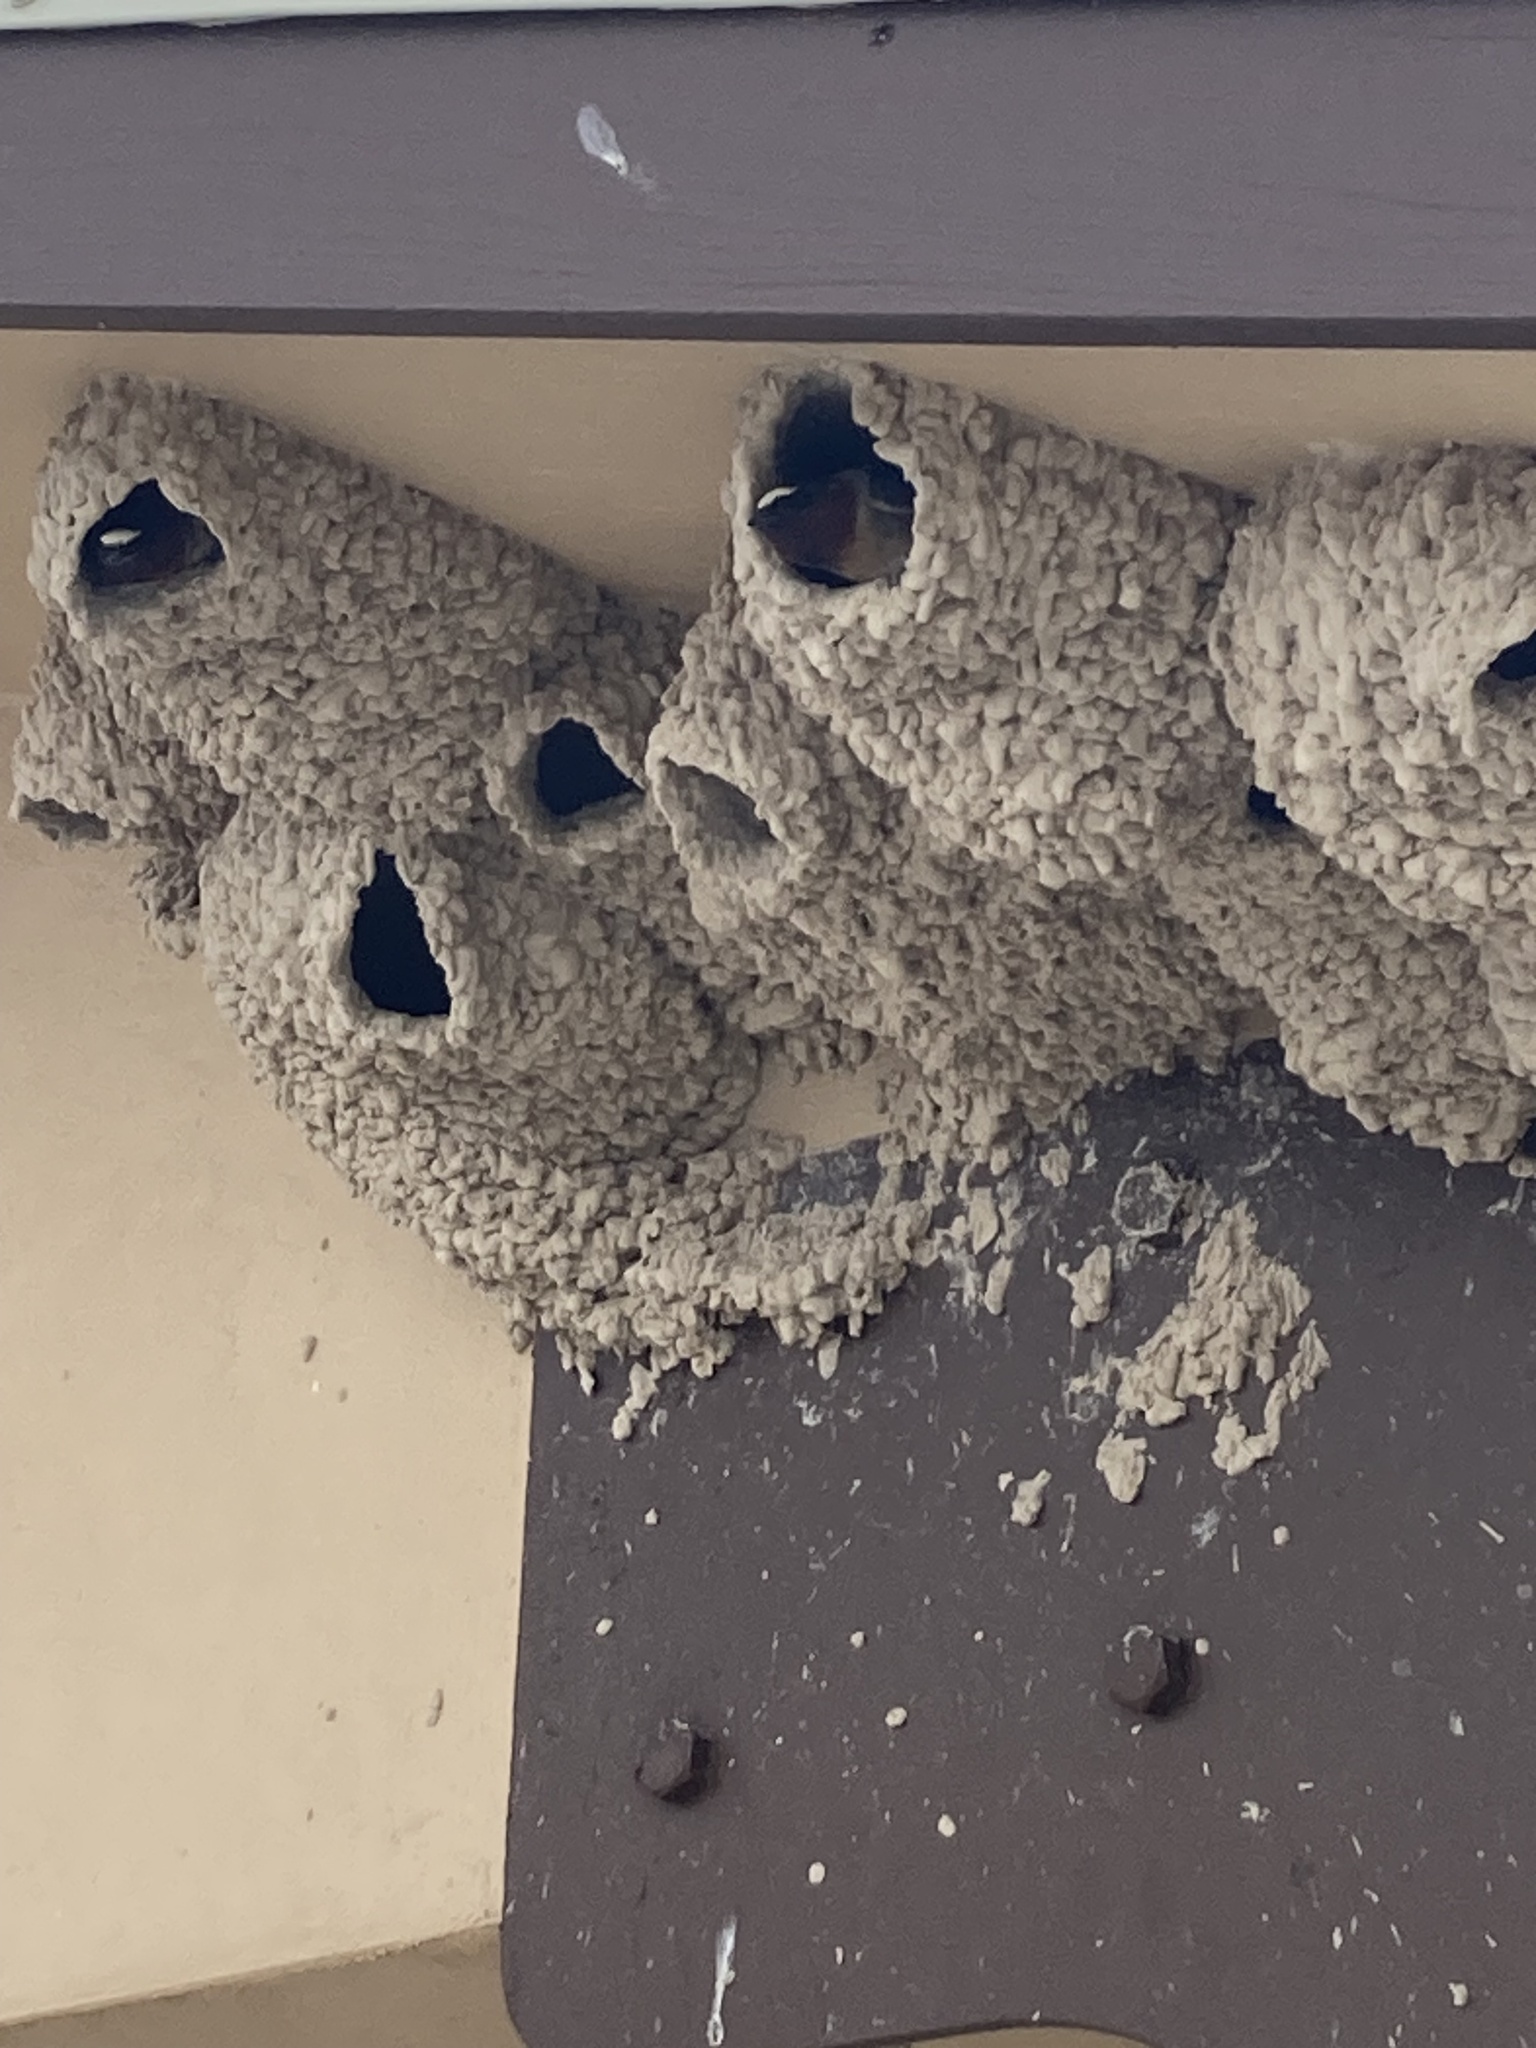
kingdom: Animalia
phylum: Chordata
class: Aves
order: Passeriformes
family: Hirundinidae
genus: Petrochelidon
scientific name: Petrochelidon pyrrhonota
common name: American cliff swallow
